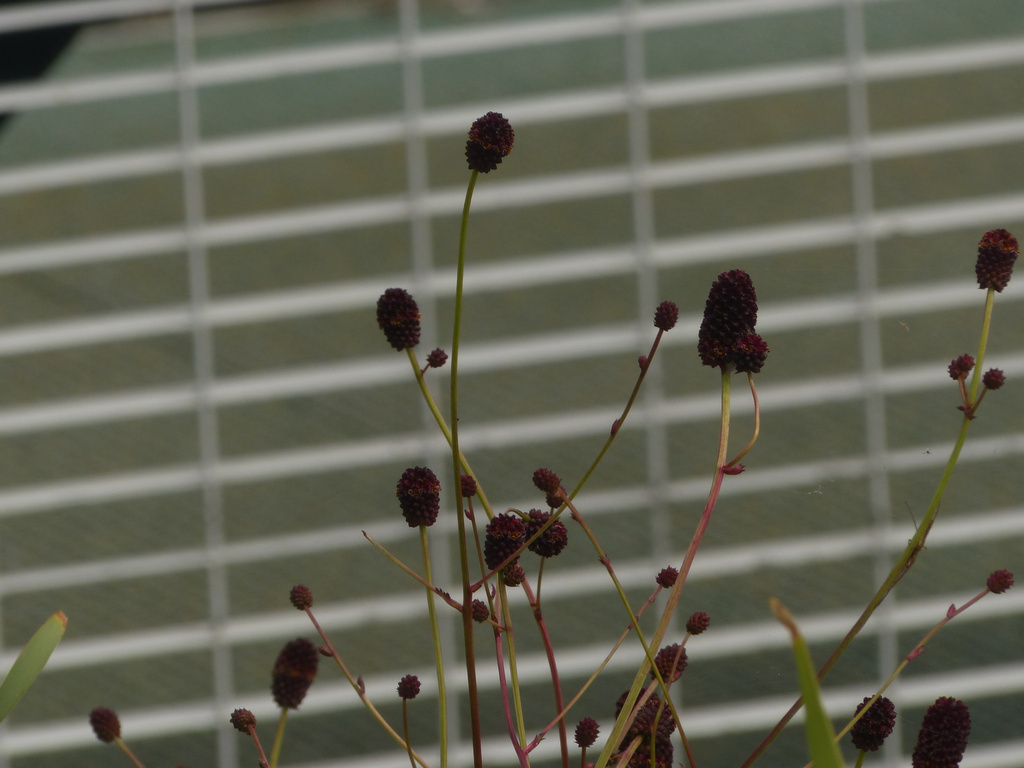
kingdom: Plantae
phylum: Tracheophyta
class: Magnoliopsida
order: Rosales
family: Rosaceae
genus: Sanguisorba
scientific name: Sanguisorba officinalis
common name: Great burnet
